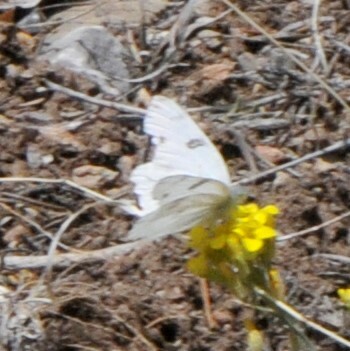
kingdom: Animalia
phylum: Arthropoda
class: Insecta
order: Lepidoptera
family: Pieridae
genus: Pontia
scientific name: Pontia protodice
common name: Checkered white
